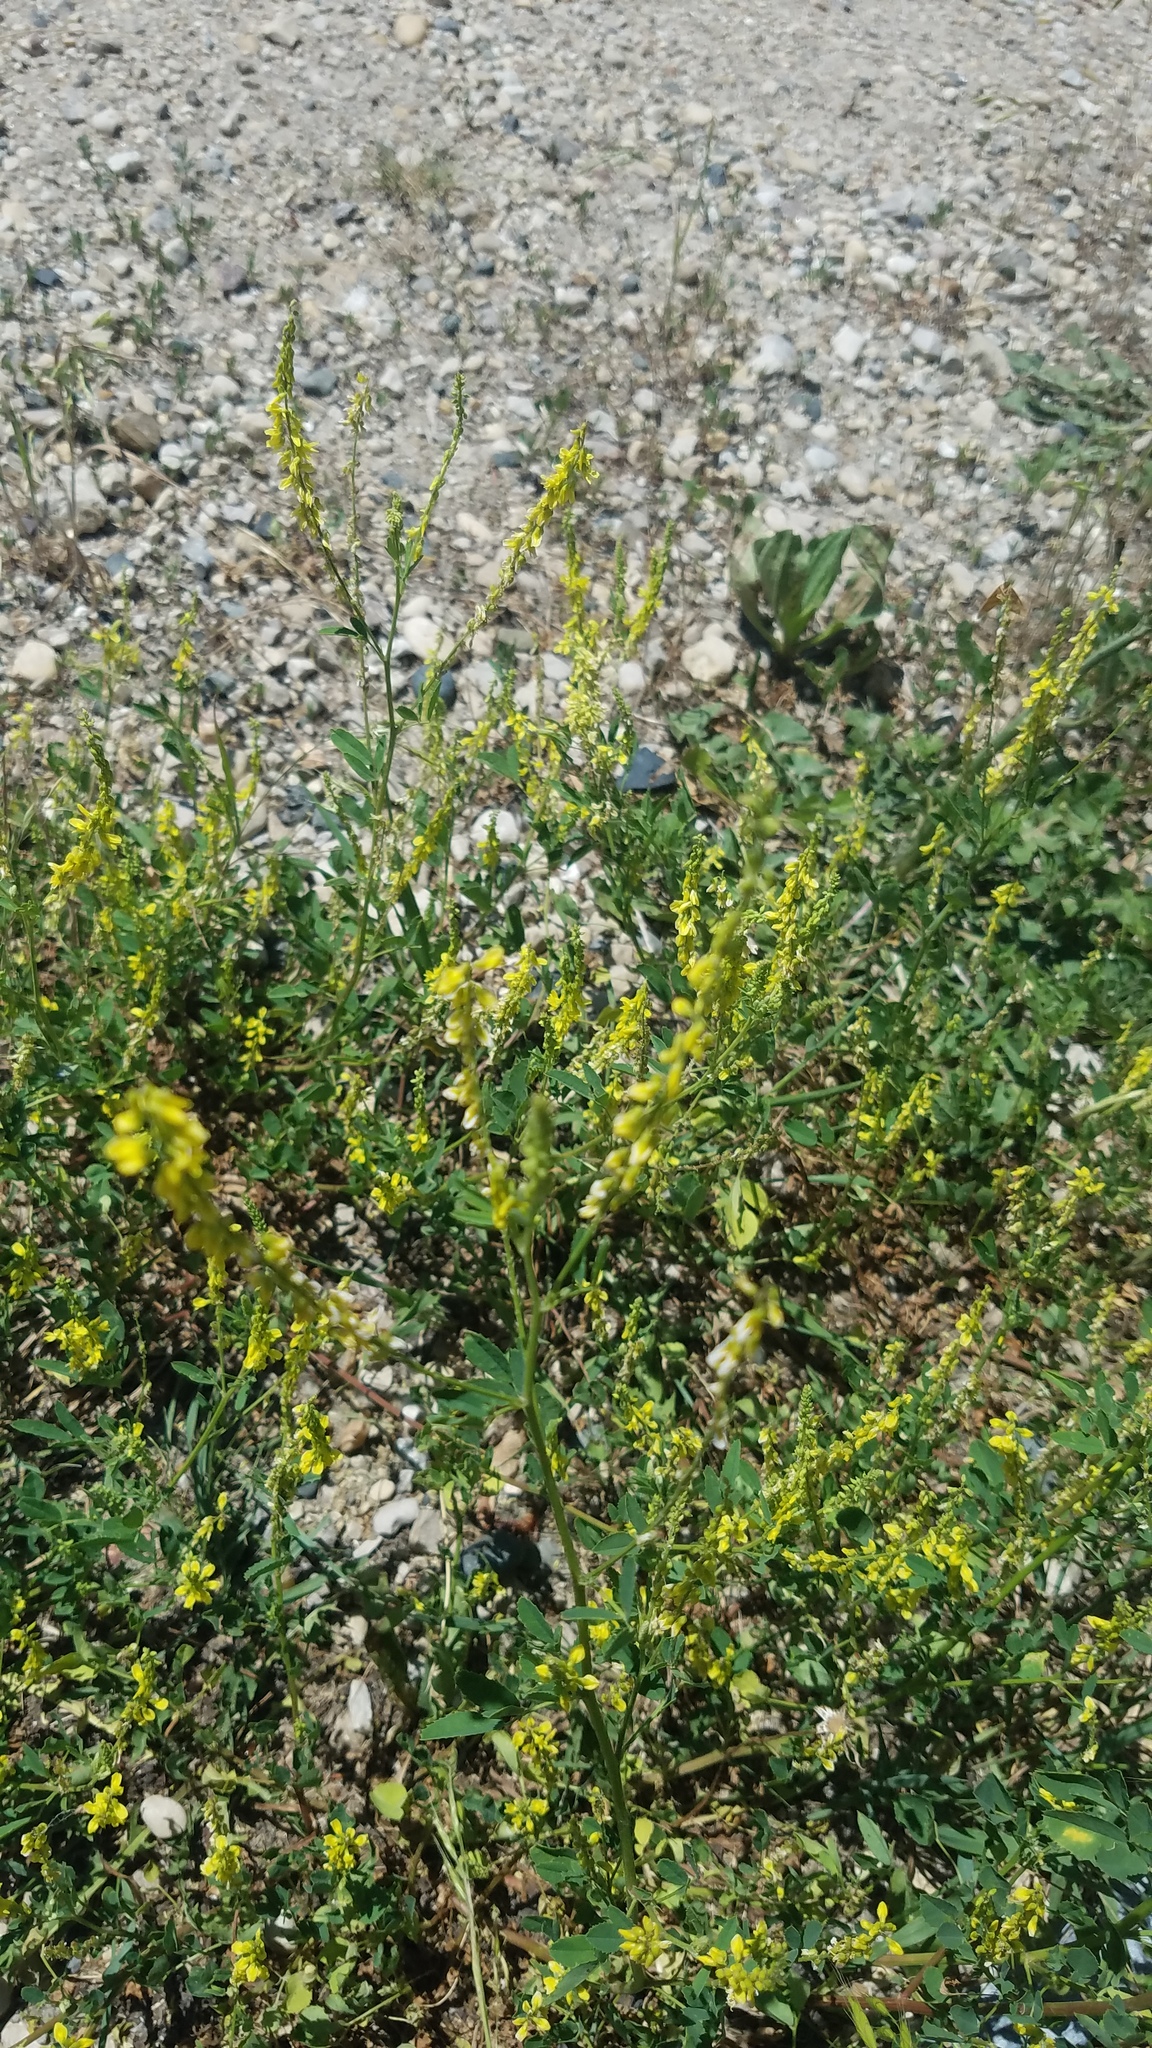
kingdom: Plantae
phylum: Tracheophyta
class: Magnoliopsida
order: Fabales
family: Fabaceae
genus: Melilotus
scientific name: Melilotus officinalis
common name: Sweetclover
